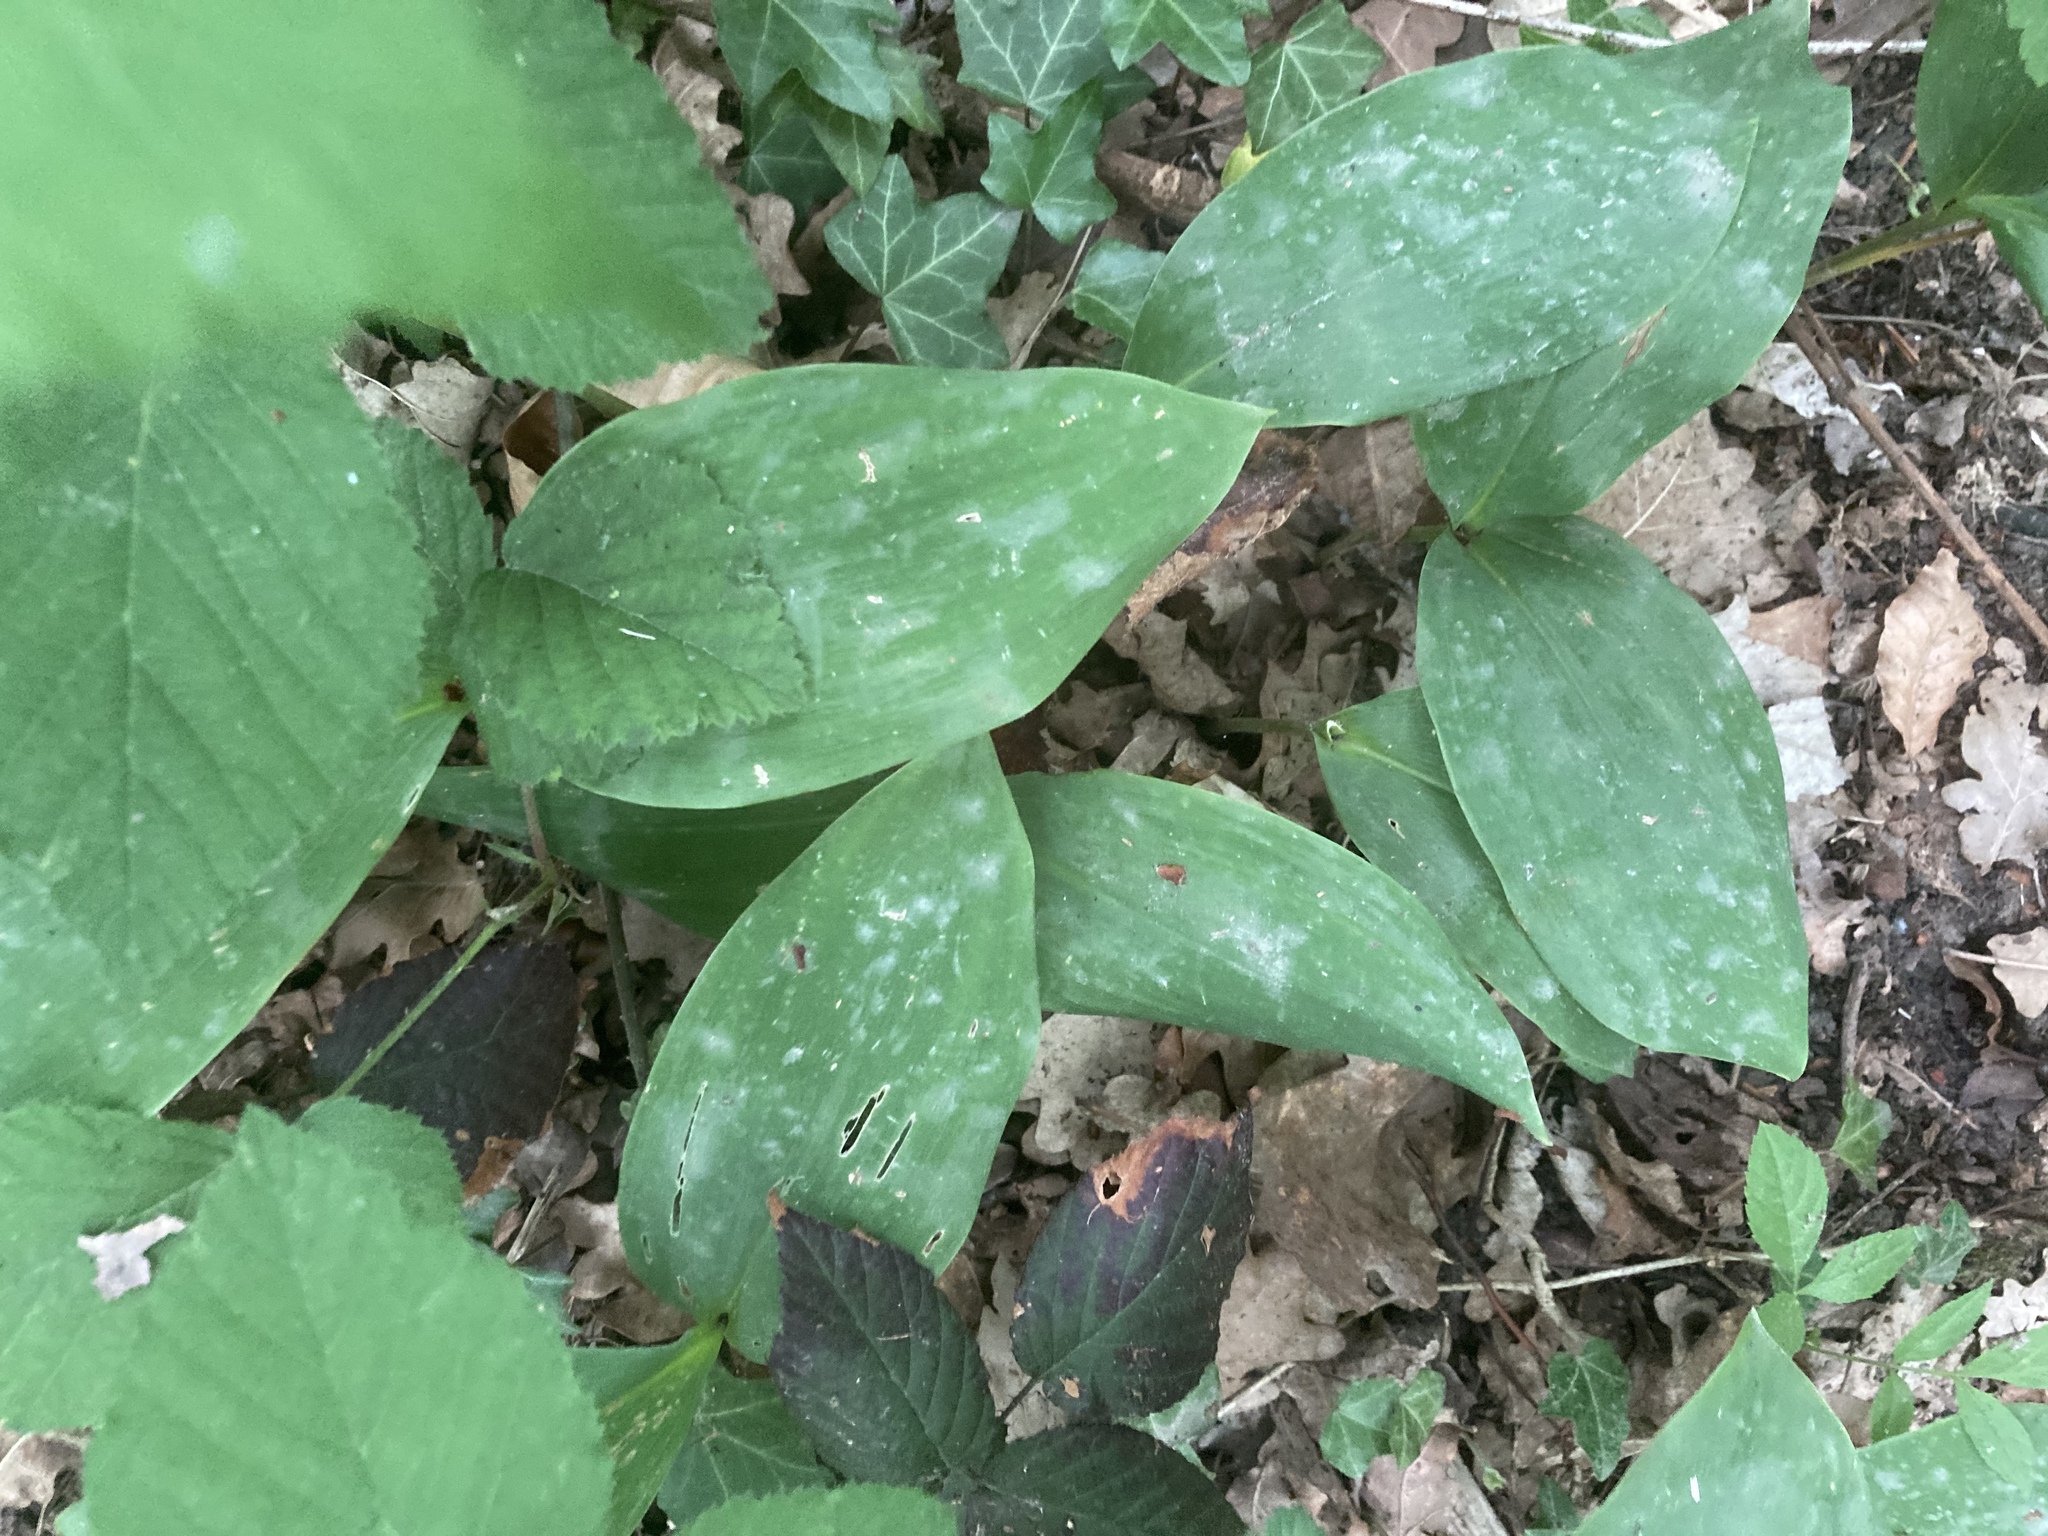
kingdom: Plantae
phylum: Tracheophyta
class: Liliopsida
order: Asparagales
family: Asparagaceae
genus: Convallaria
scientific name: Convallaria majalis
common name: Lily-of-the-valley
